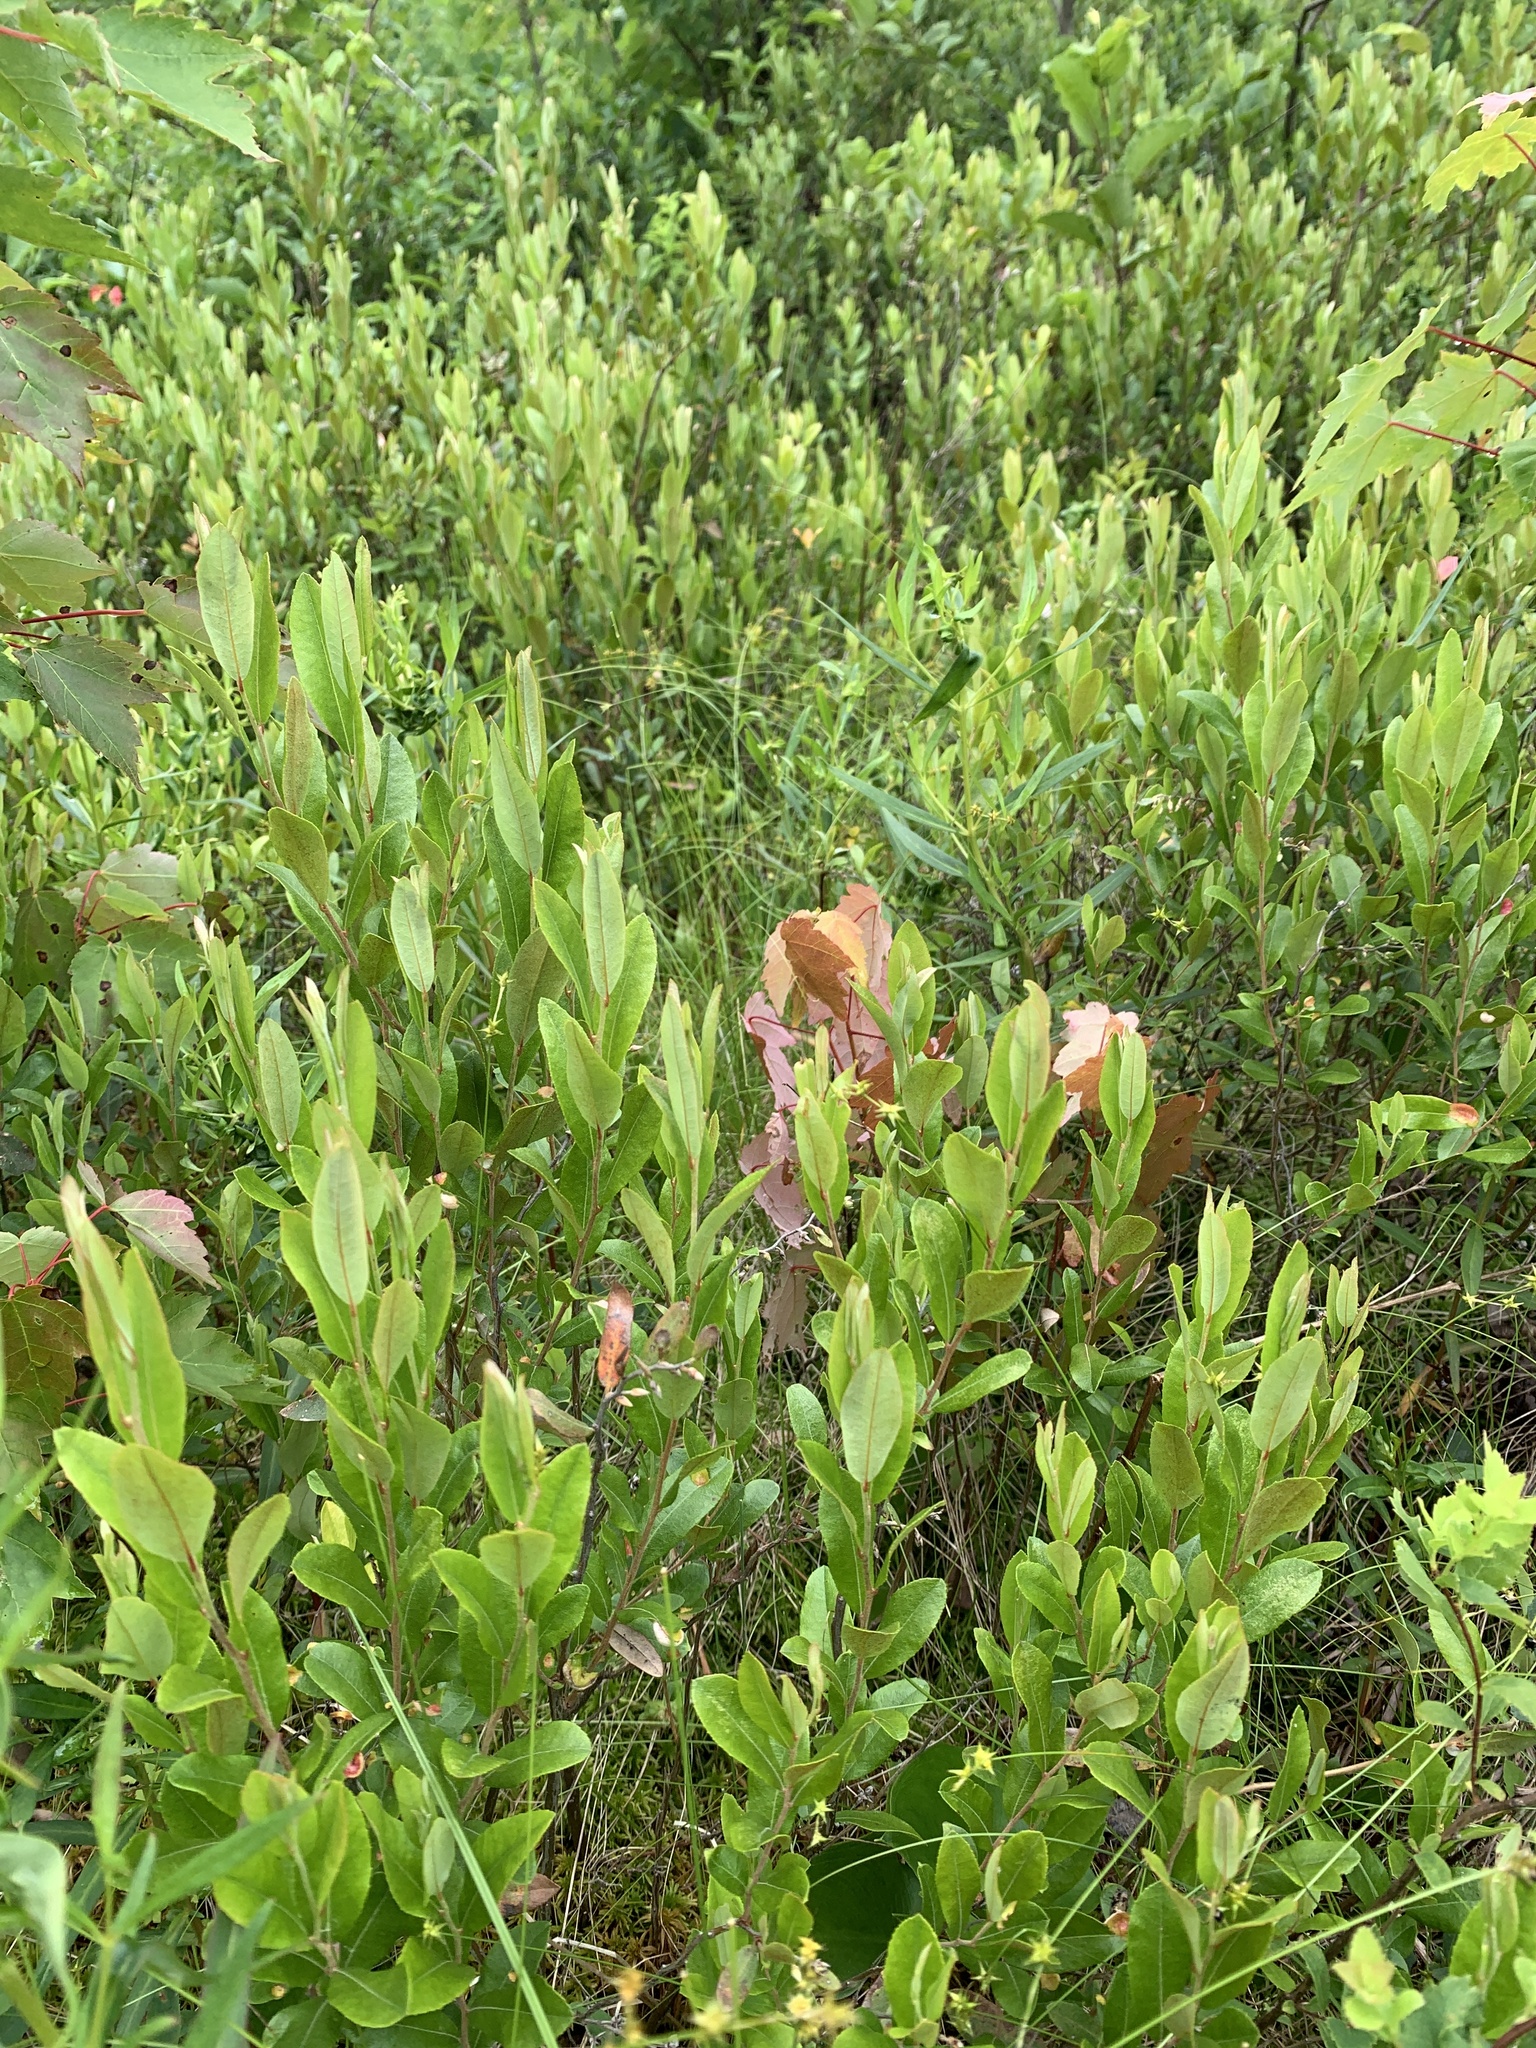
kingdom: Plantae
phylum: Tracheophyta
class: Magnoliopsida
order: Ericales
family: Ericaceae
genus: Chamaedaphne
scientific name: Chamaedaphne calyculata
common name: Leatherleaf
